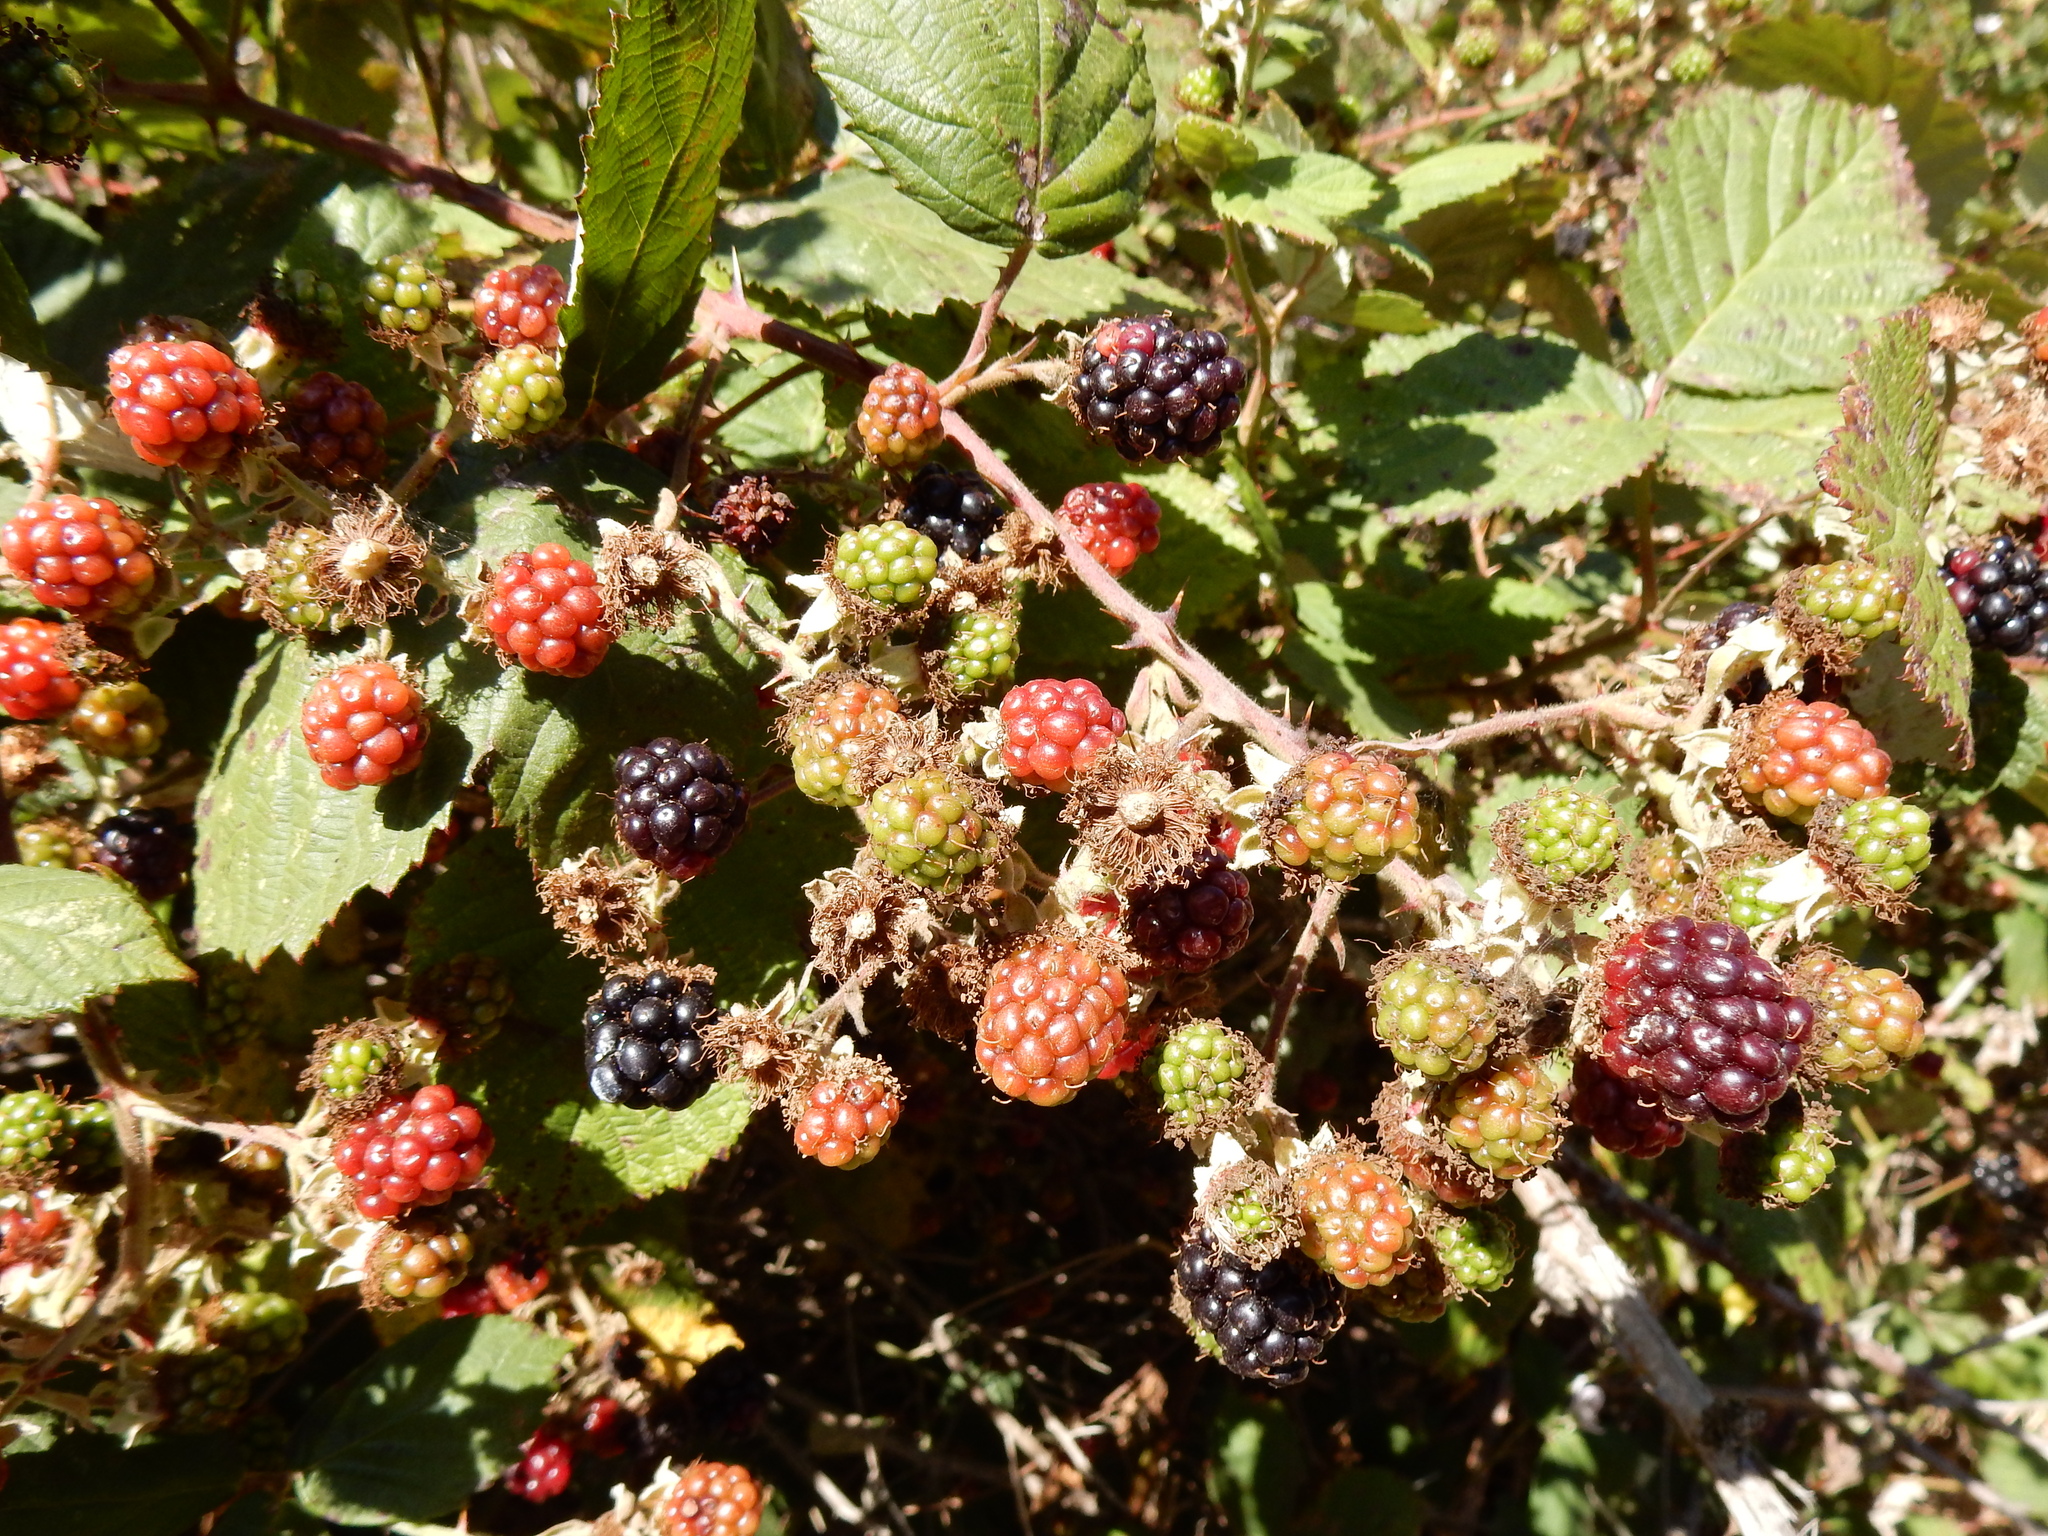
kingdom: Plantae
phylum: Tracheophyta
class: Magnoliopsida
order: Rosales
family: Rosaceae
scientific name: Rosaceae
